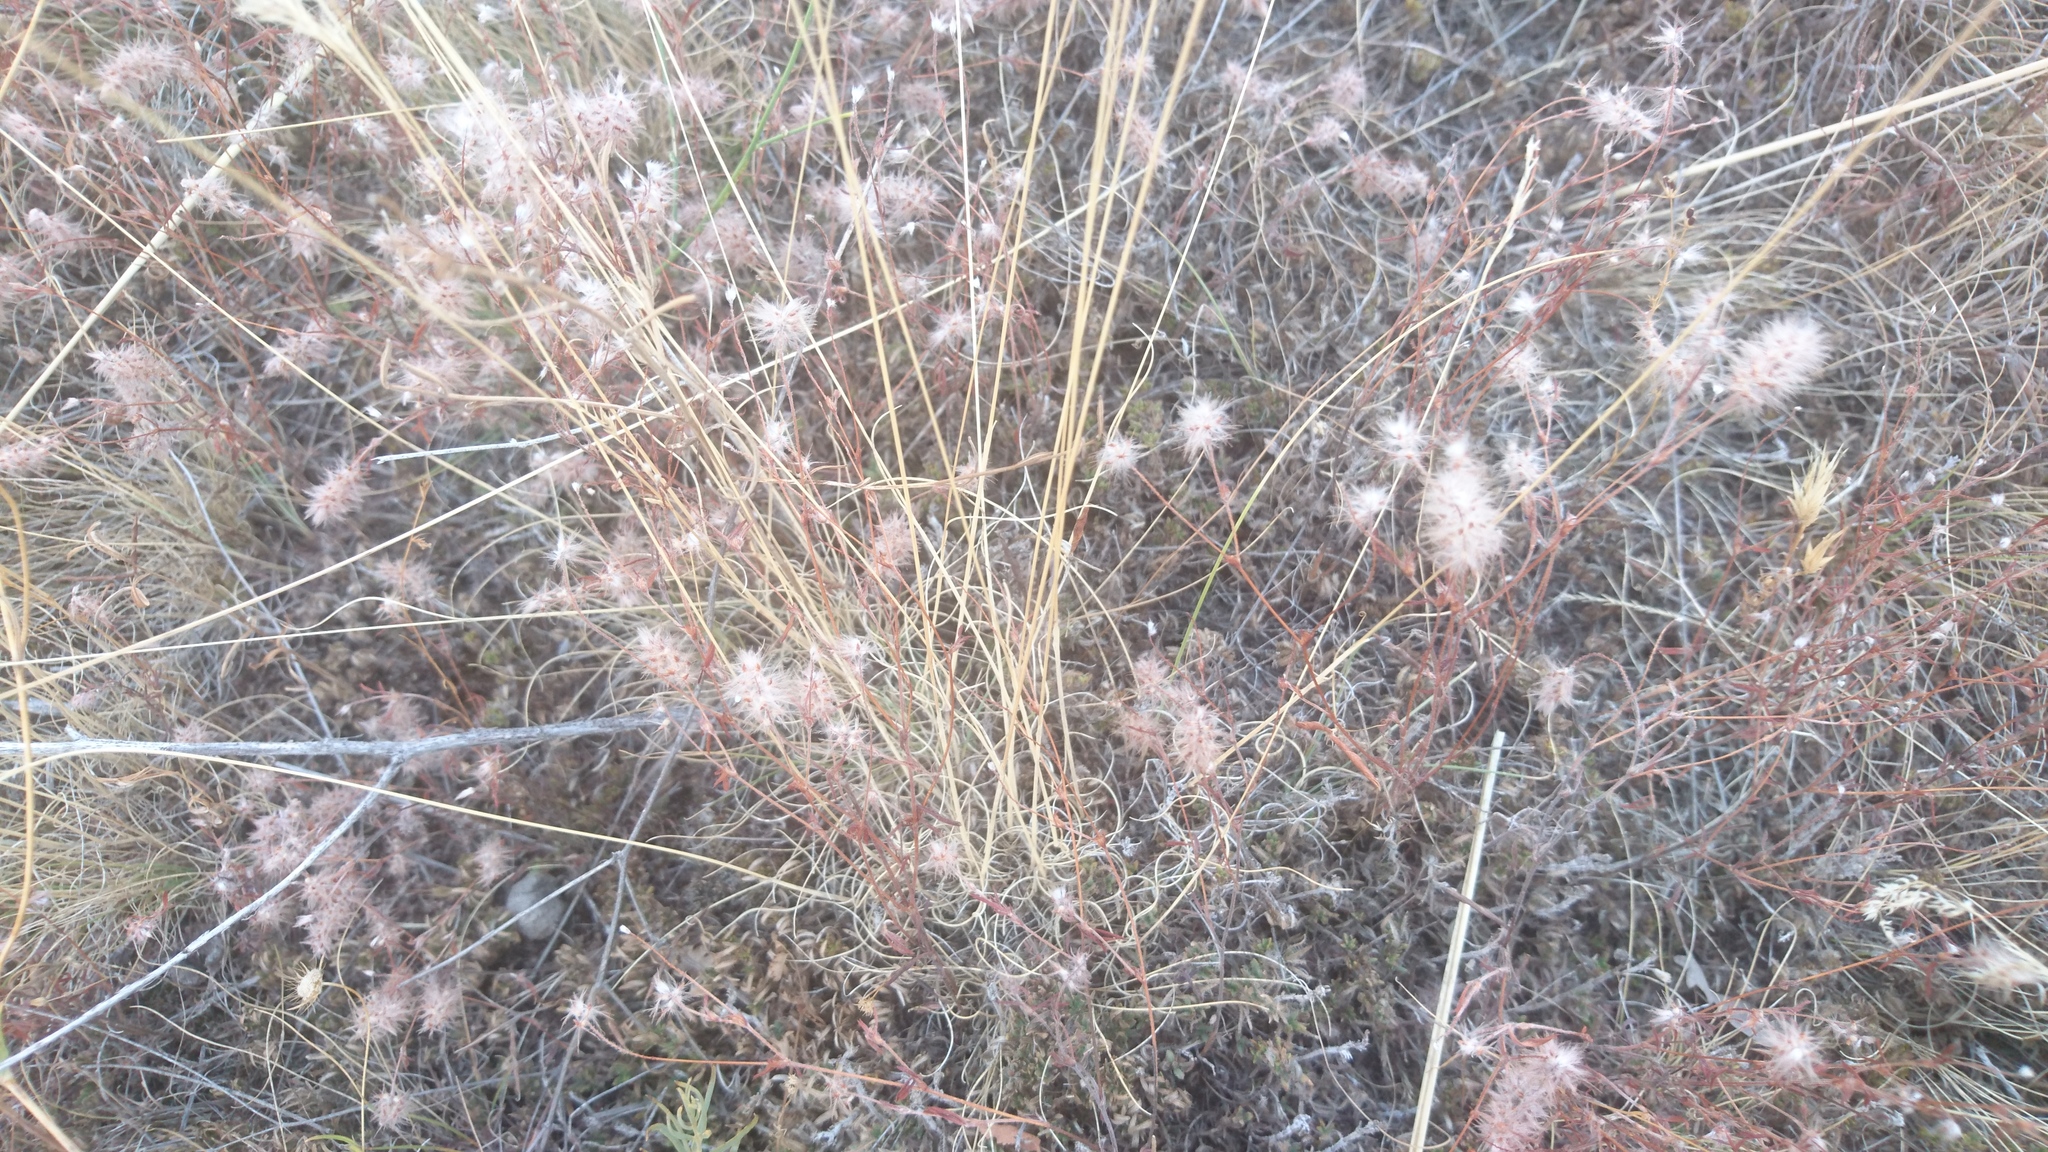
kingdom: Plantae
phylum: Tracheophyta
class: Magnoliopsida
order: Fabales
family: Fabaceae
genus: Trifolium
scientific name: Trifolium arvense
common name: Hare's-foot clover
